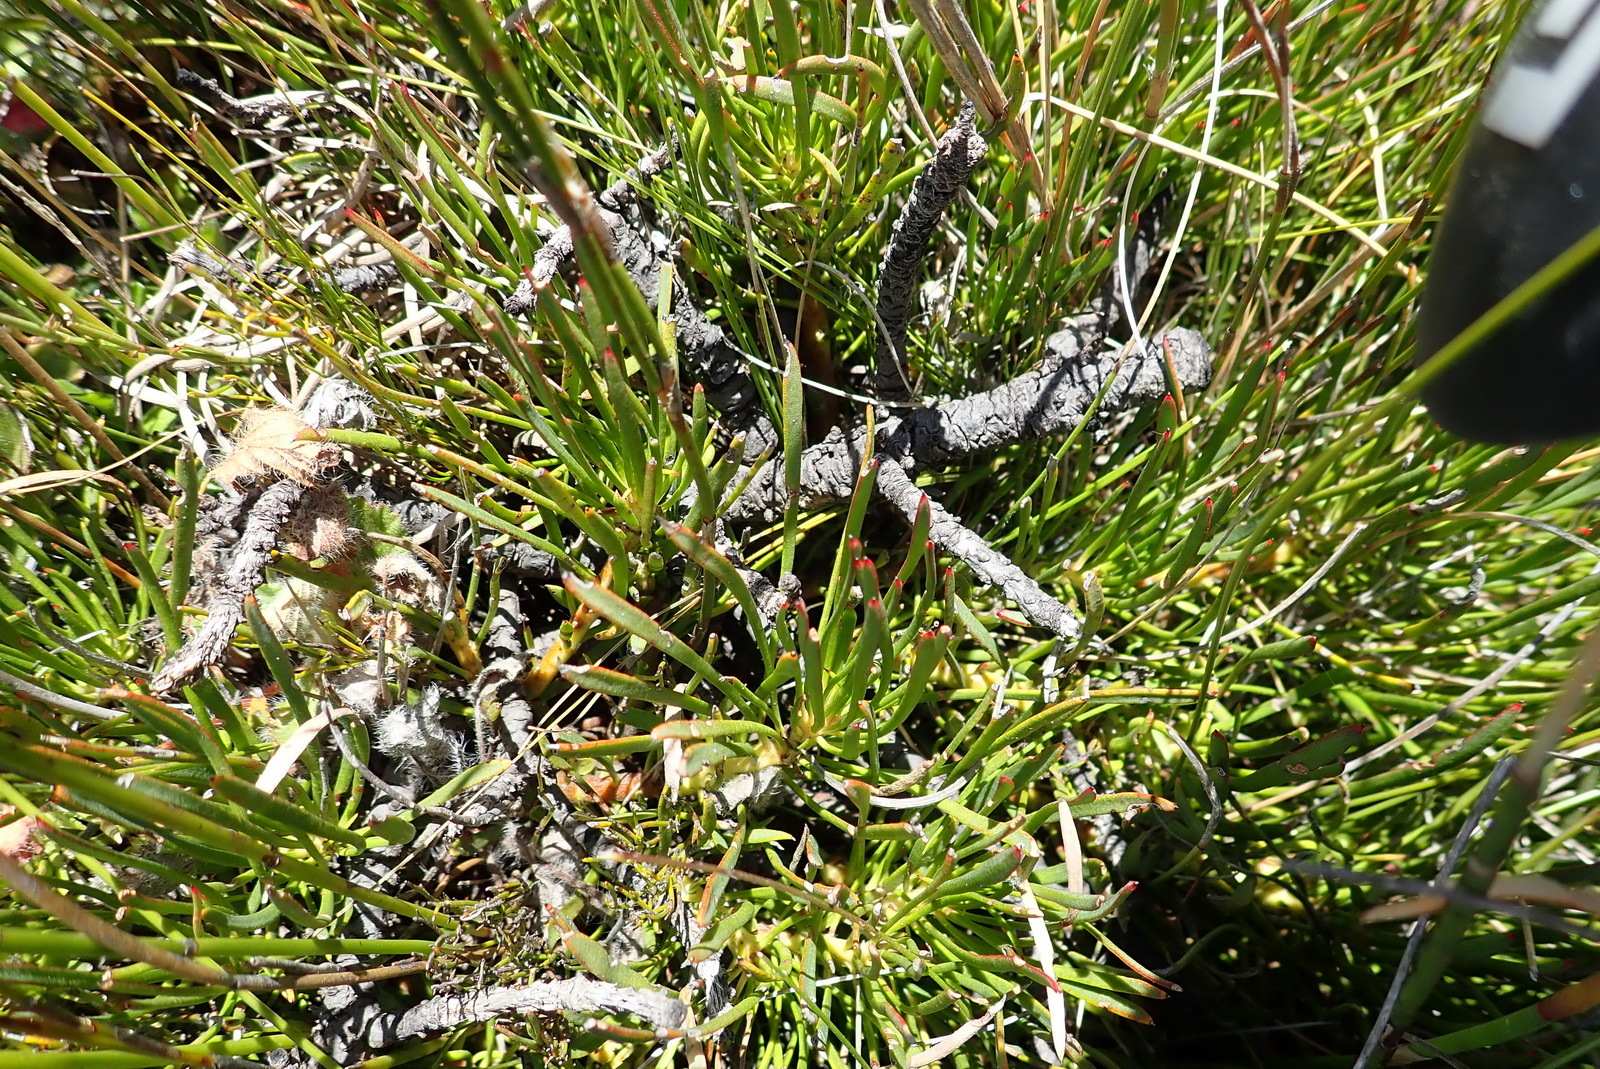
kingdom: Plantae
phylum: Tracheophyta
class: Magnoliopsida
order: Proteales
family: Proteaceae
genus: Protea
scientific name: Protea montana
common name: Swartberg sugarbush
